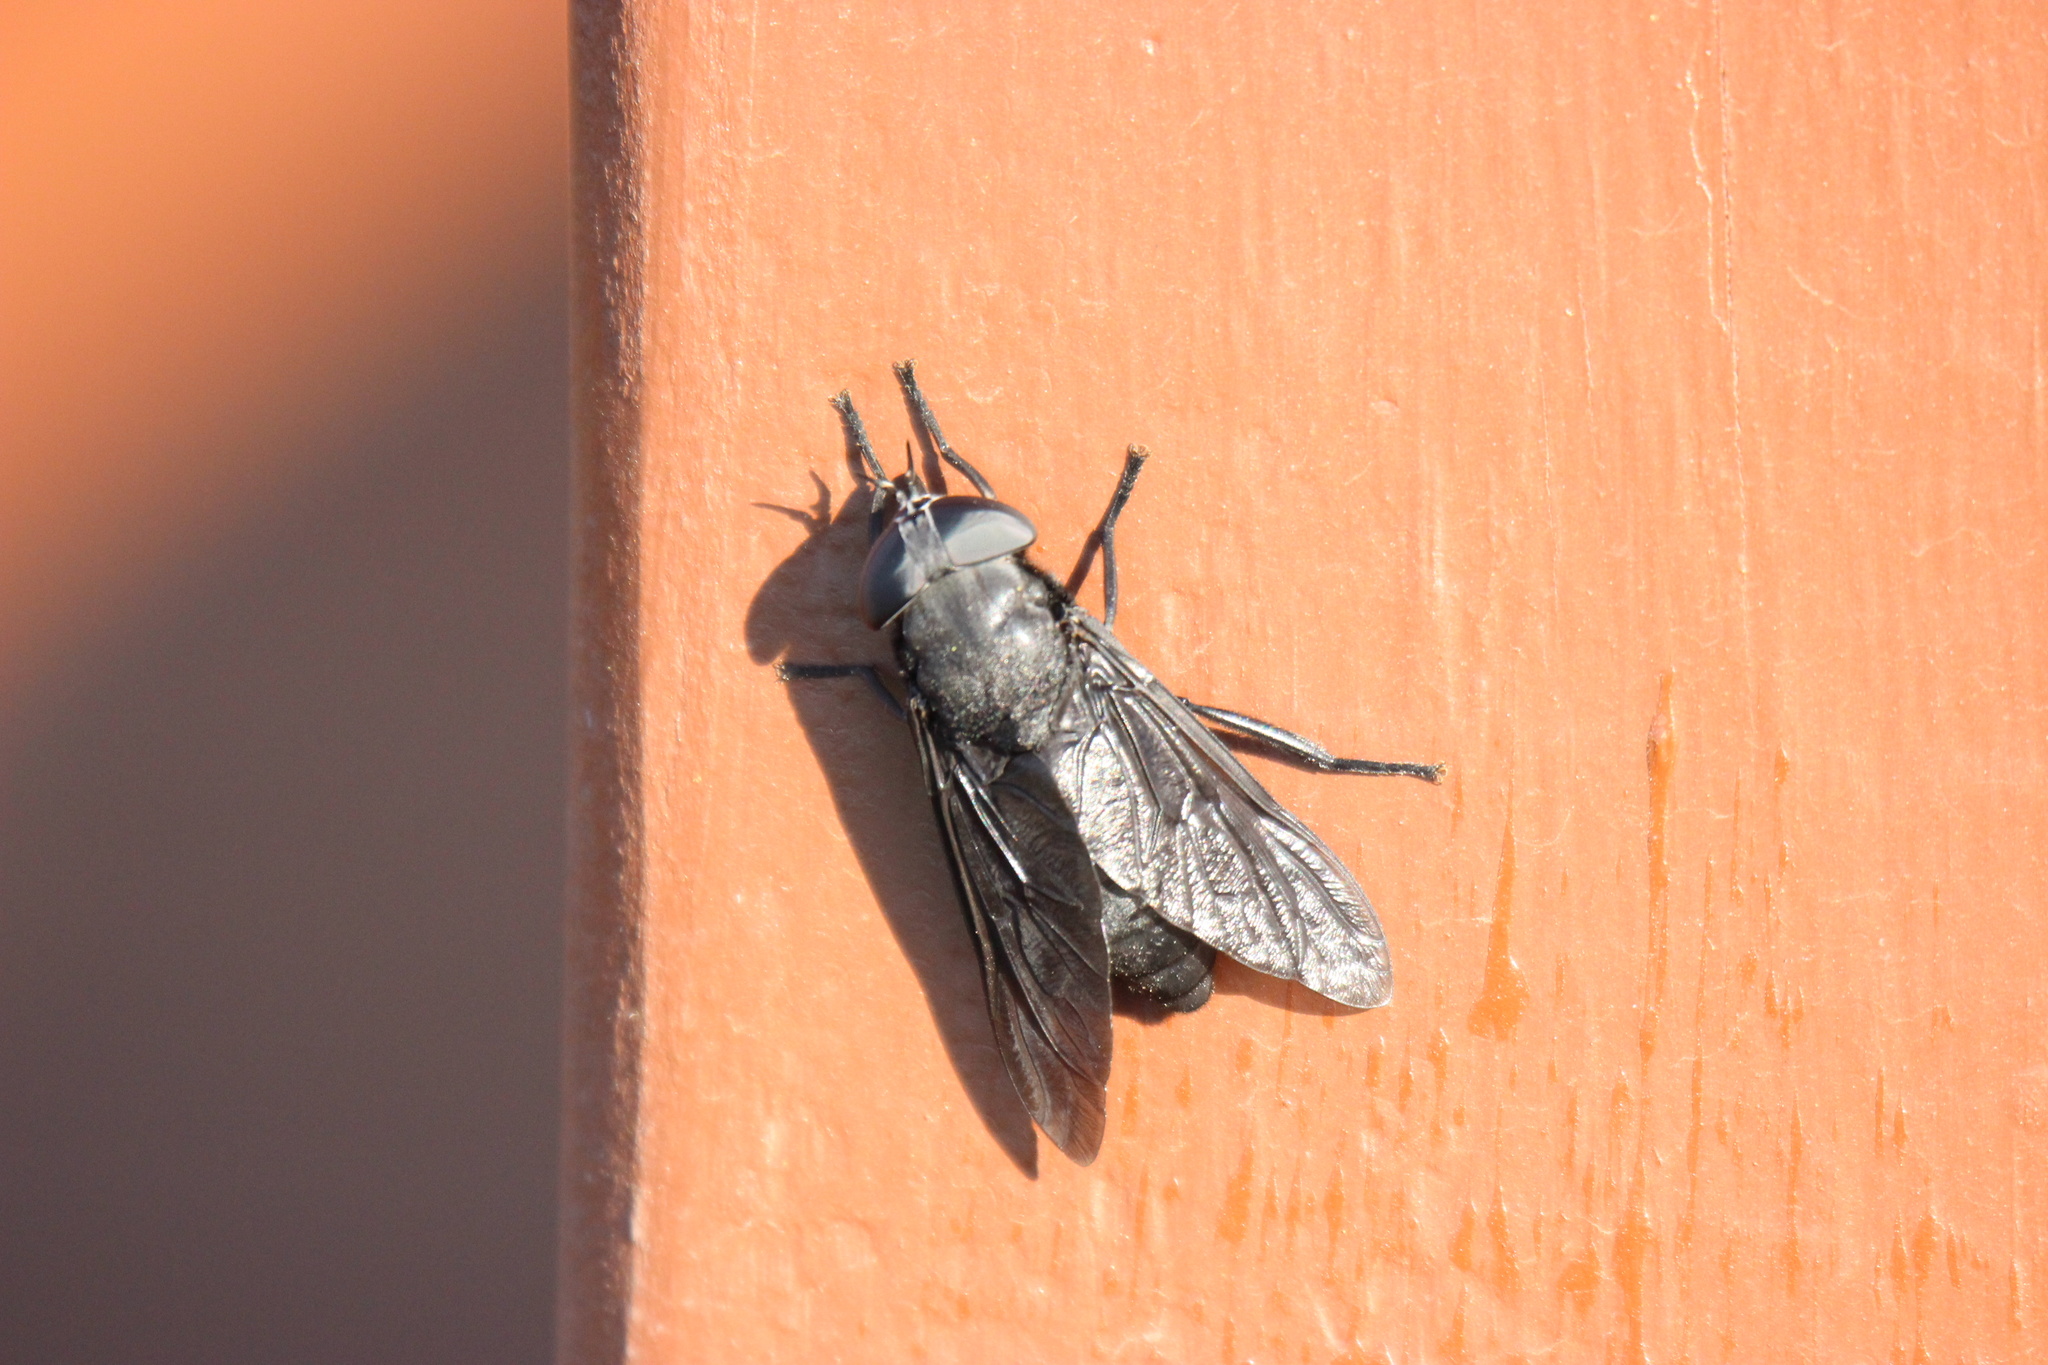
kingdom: Animalia
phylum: Arthropoda
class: Insecta
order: Diptera
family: Tabanidae
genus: Tabanus
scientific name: Tabanus atratus
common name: Black horse fly
